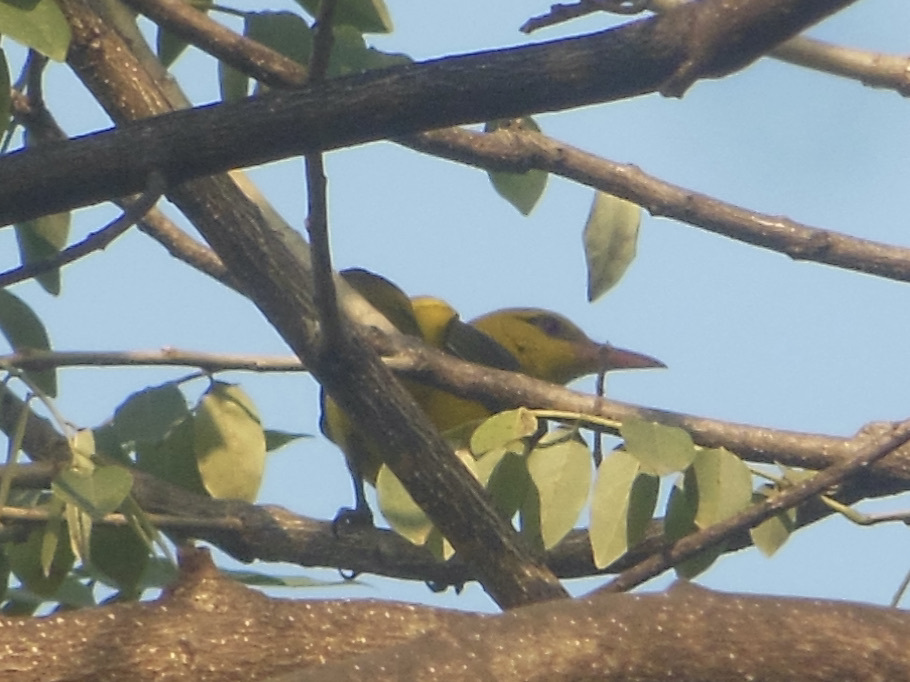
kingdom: Animalia
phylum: Chordata
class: Aves
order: Passeriformes
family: Oriolidae
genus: Oriolus
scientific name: Oriolus kundoo
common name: Indian golden oriole
